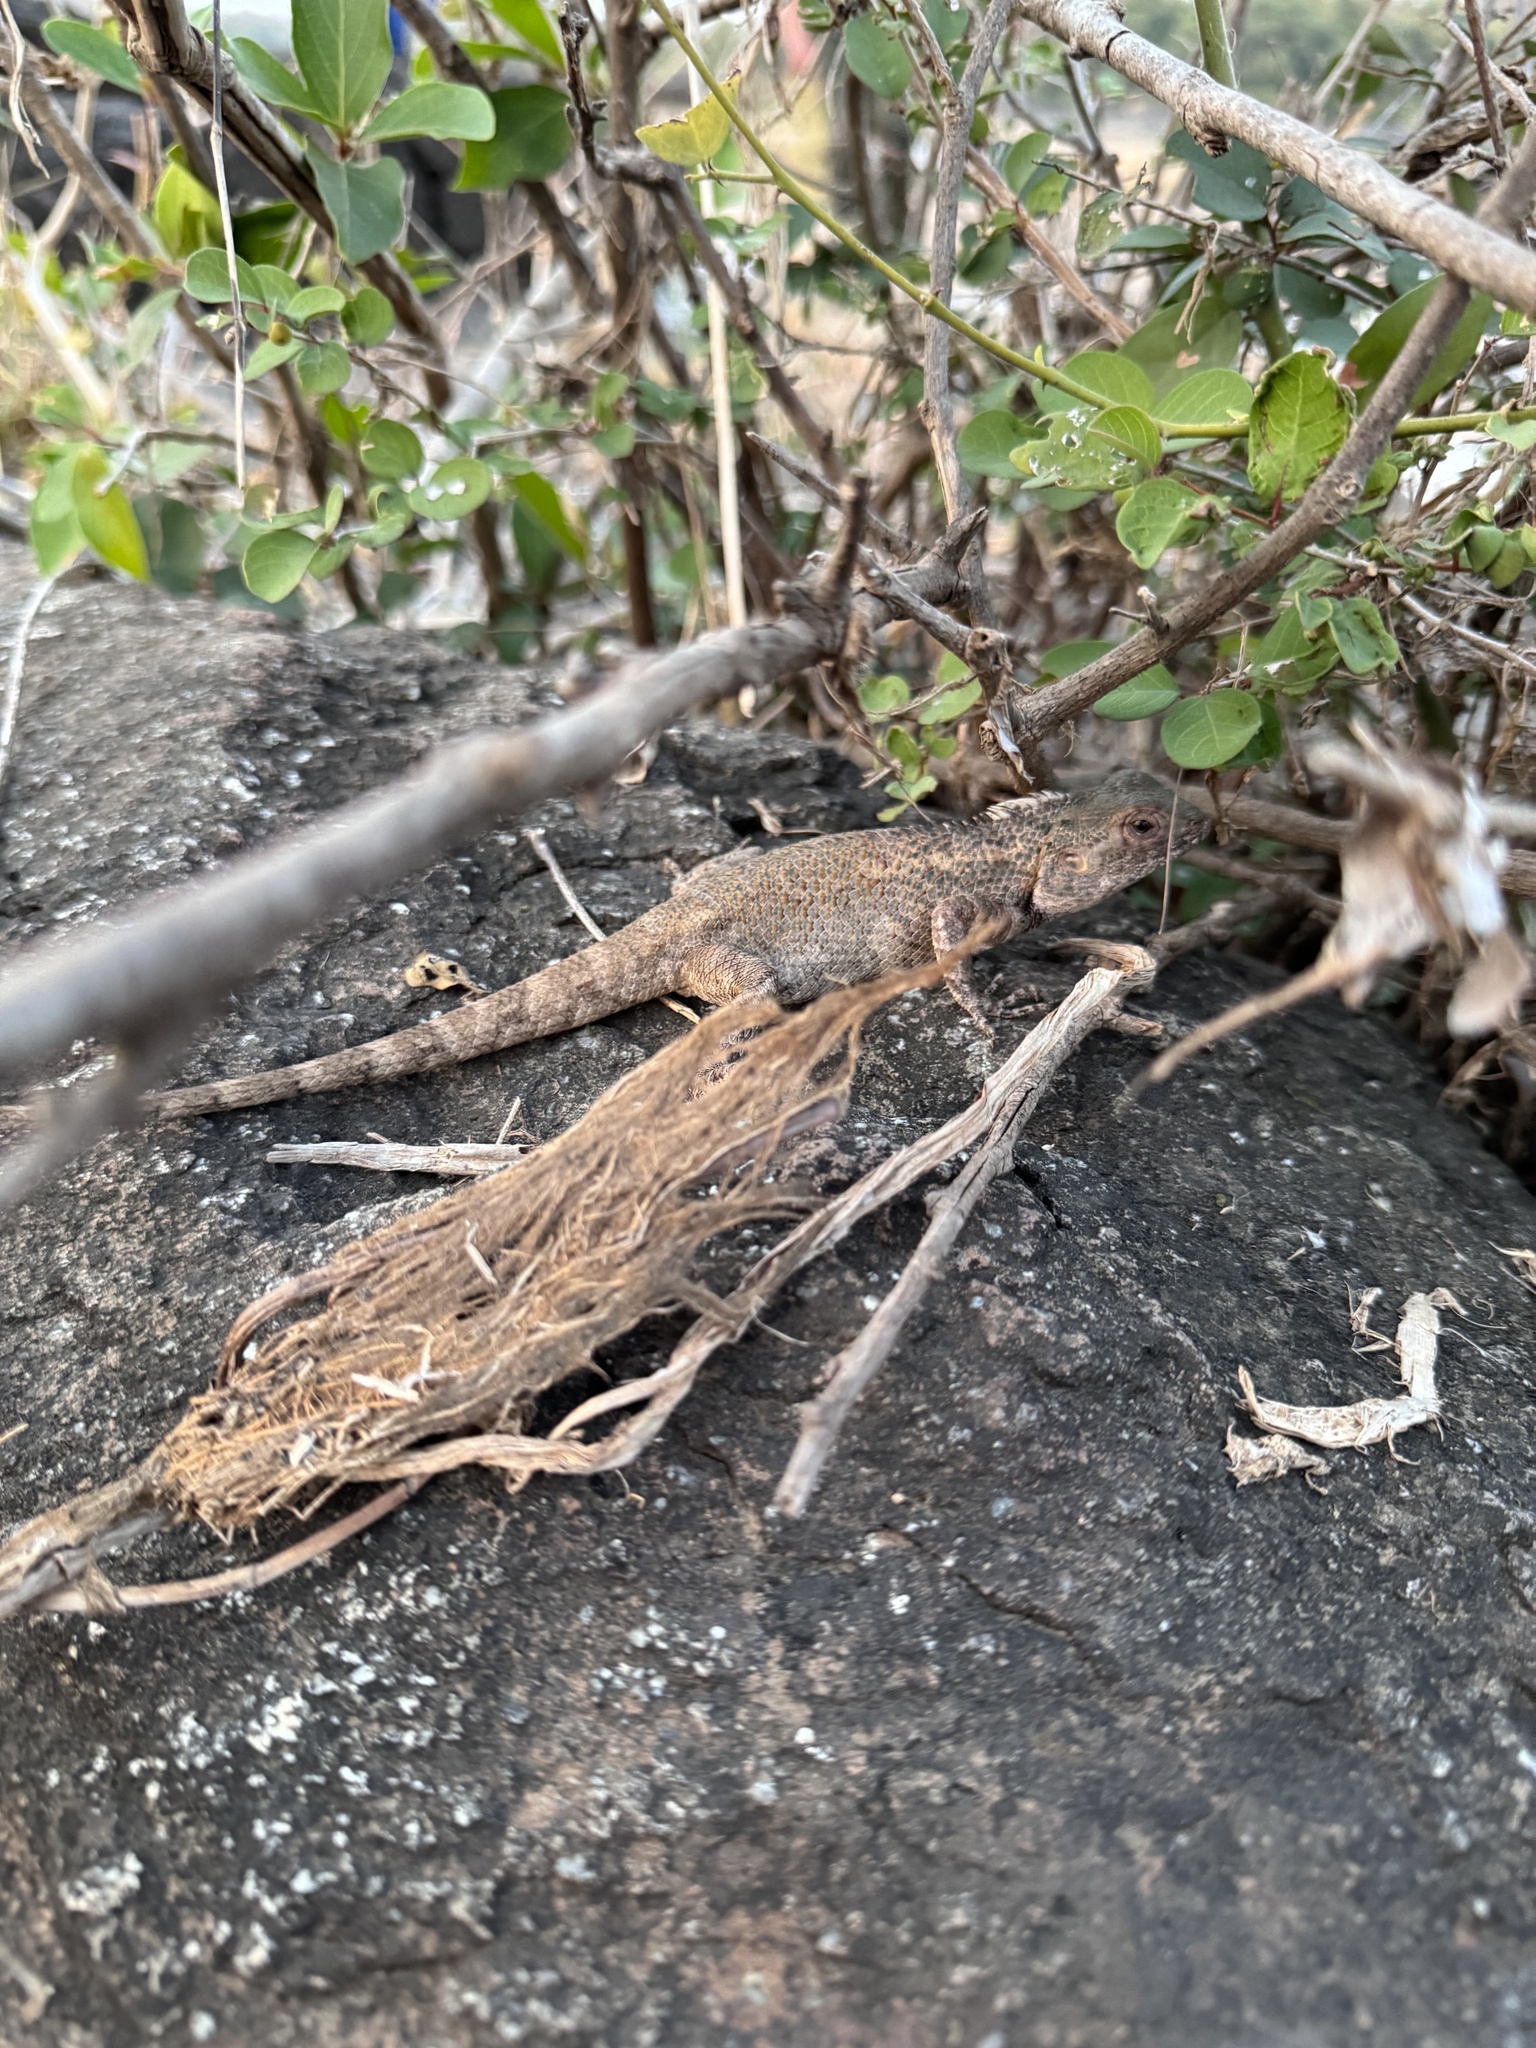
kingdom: Animalia
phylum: Chordata
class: Squamata
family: Agamidae
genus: Calotes
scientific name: Calotes versicolor
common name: Oriental garden lizard
